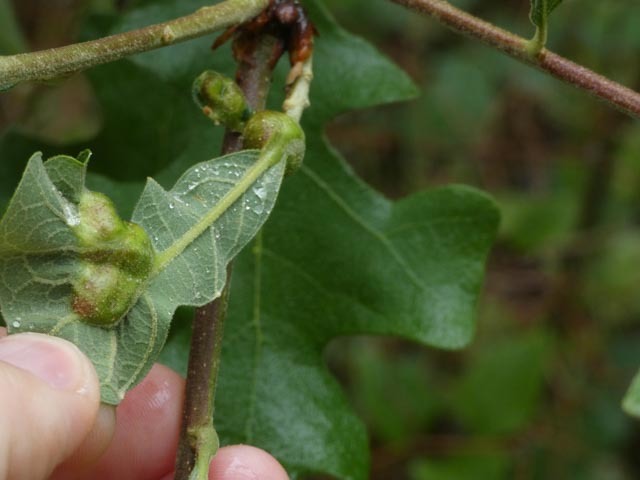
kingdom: Animalia
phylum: Arthropoda
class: Insecta
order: Hymenoptera
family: Cynipidae
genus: Neuroterus
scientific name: Neuroterus quercusirregularis
